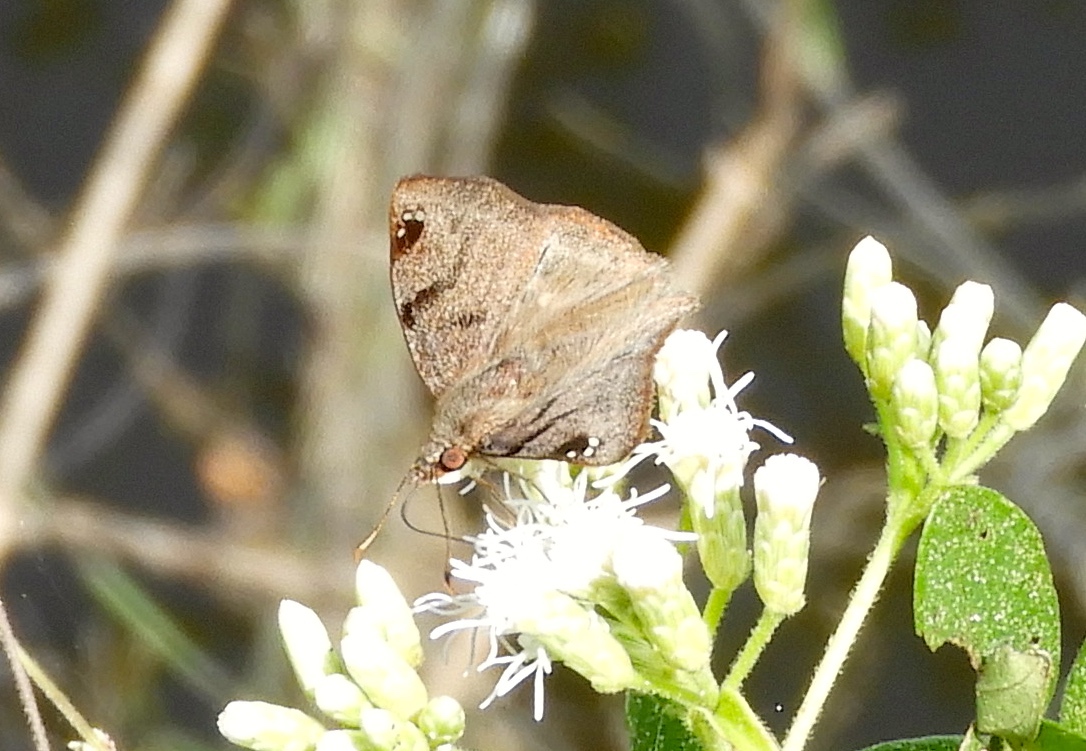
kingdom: Animalia
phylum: Arthropoda
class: Insecta
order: Lepidoptera
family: Hesperiidae
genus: Arteurotia
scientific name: Arteurotia tractipennis
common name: Starred skipper
